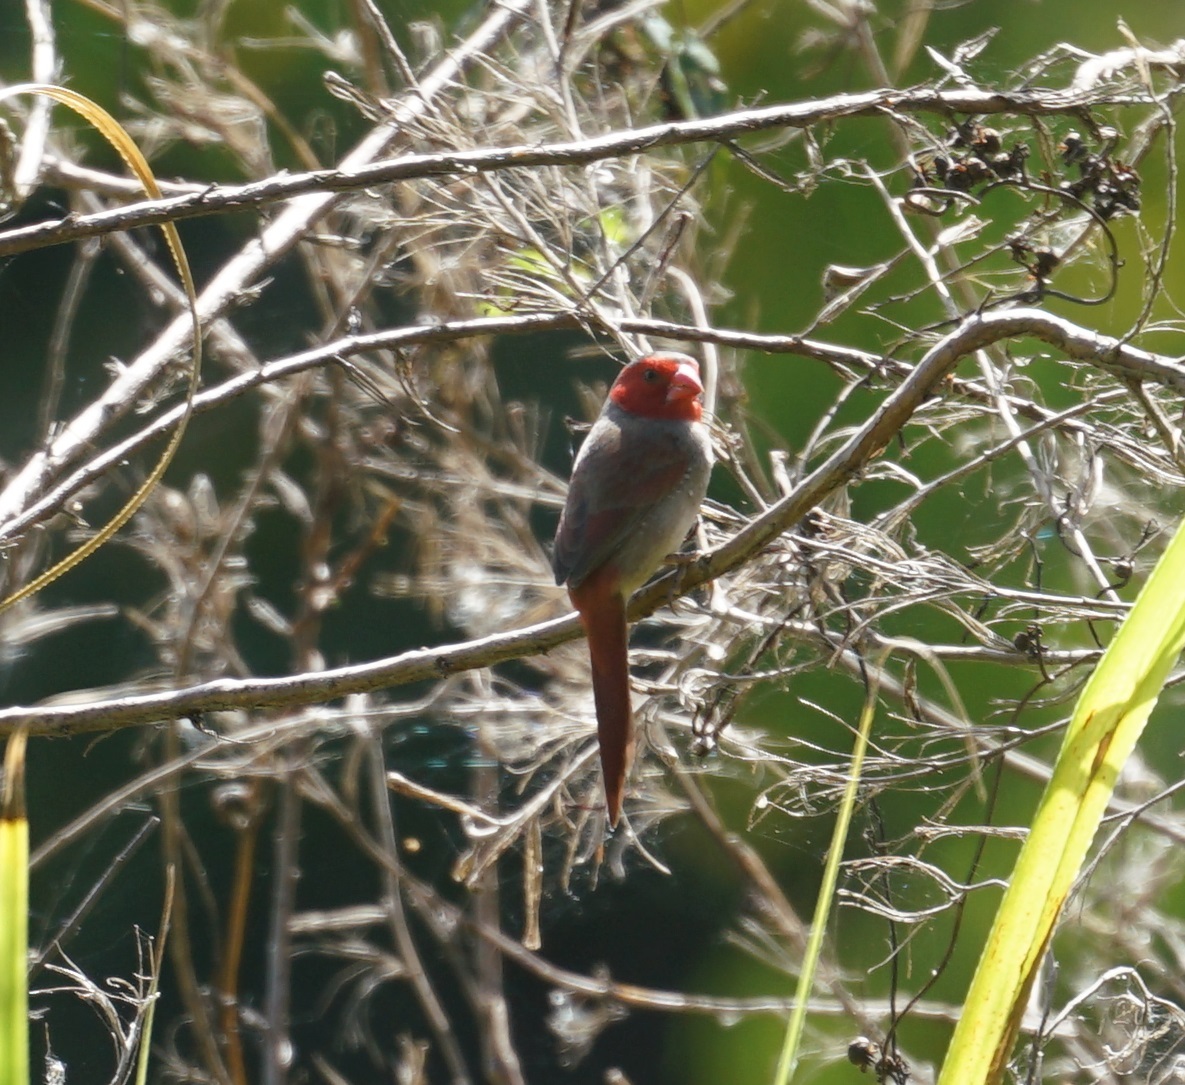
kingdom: Animalia
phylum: Chordata
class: Aves
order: Passeriformes
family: Estrildidae
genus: Neochmia
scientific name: Neochmia phaeton
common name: Crimson finch
